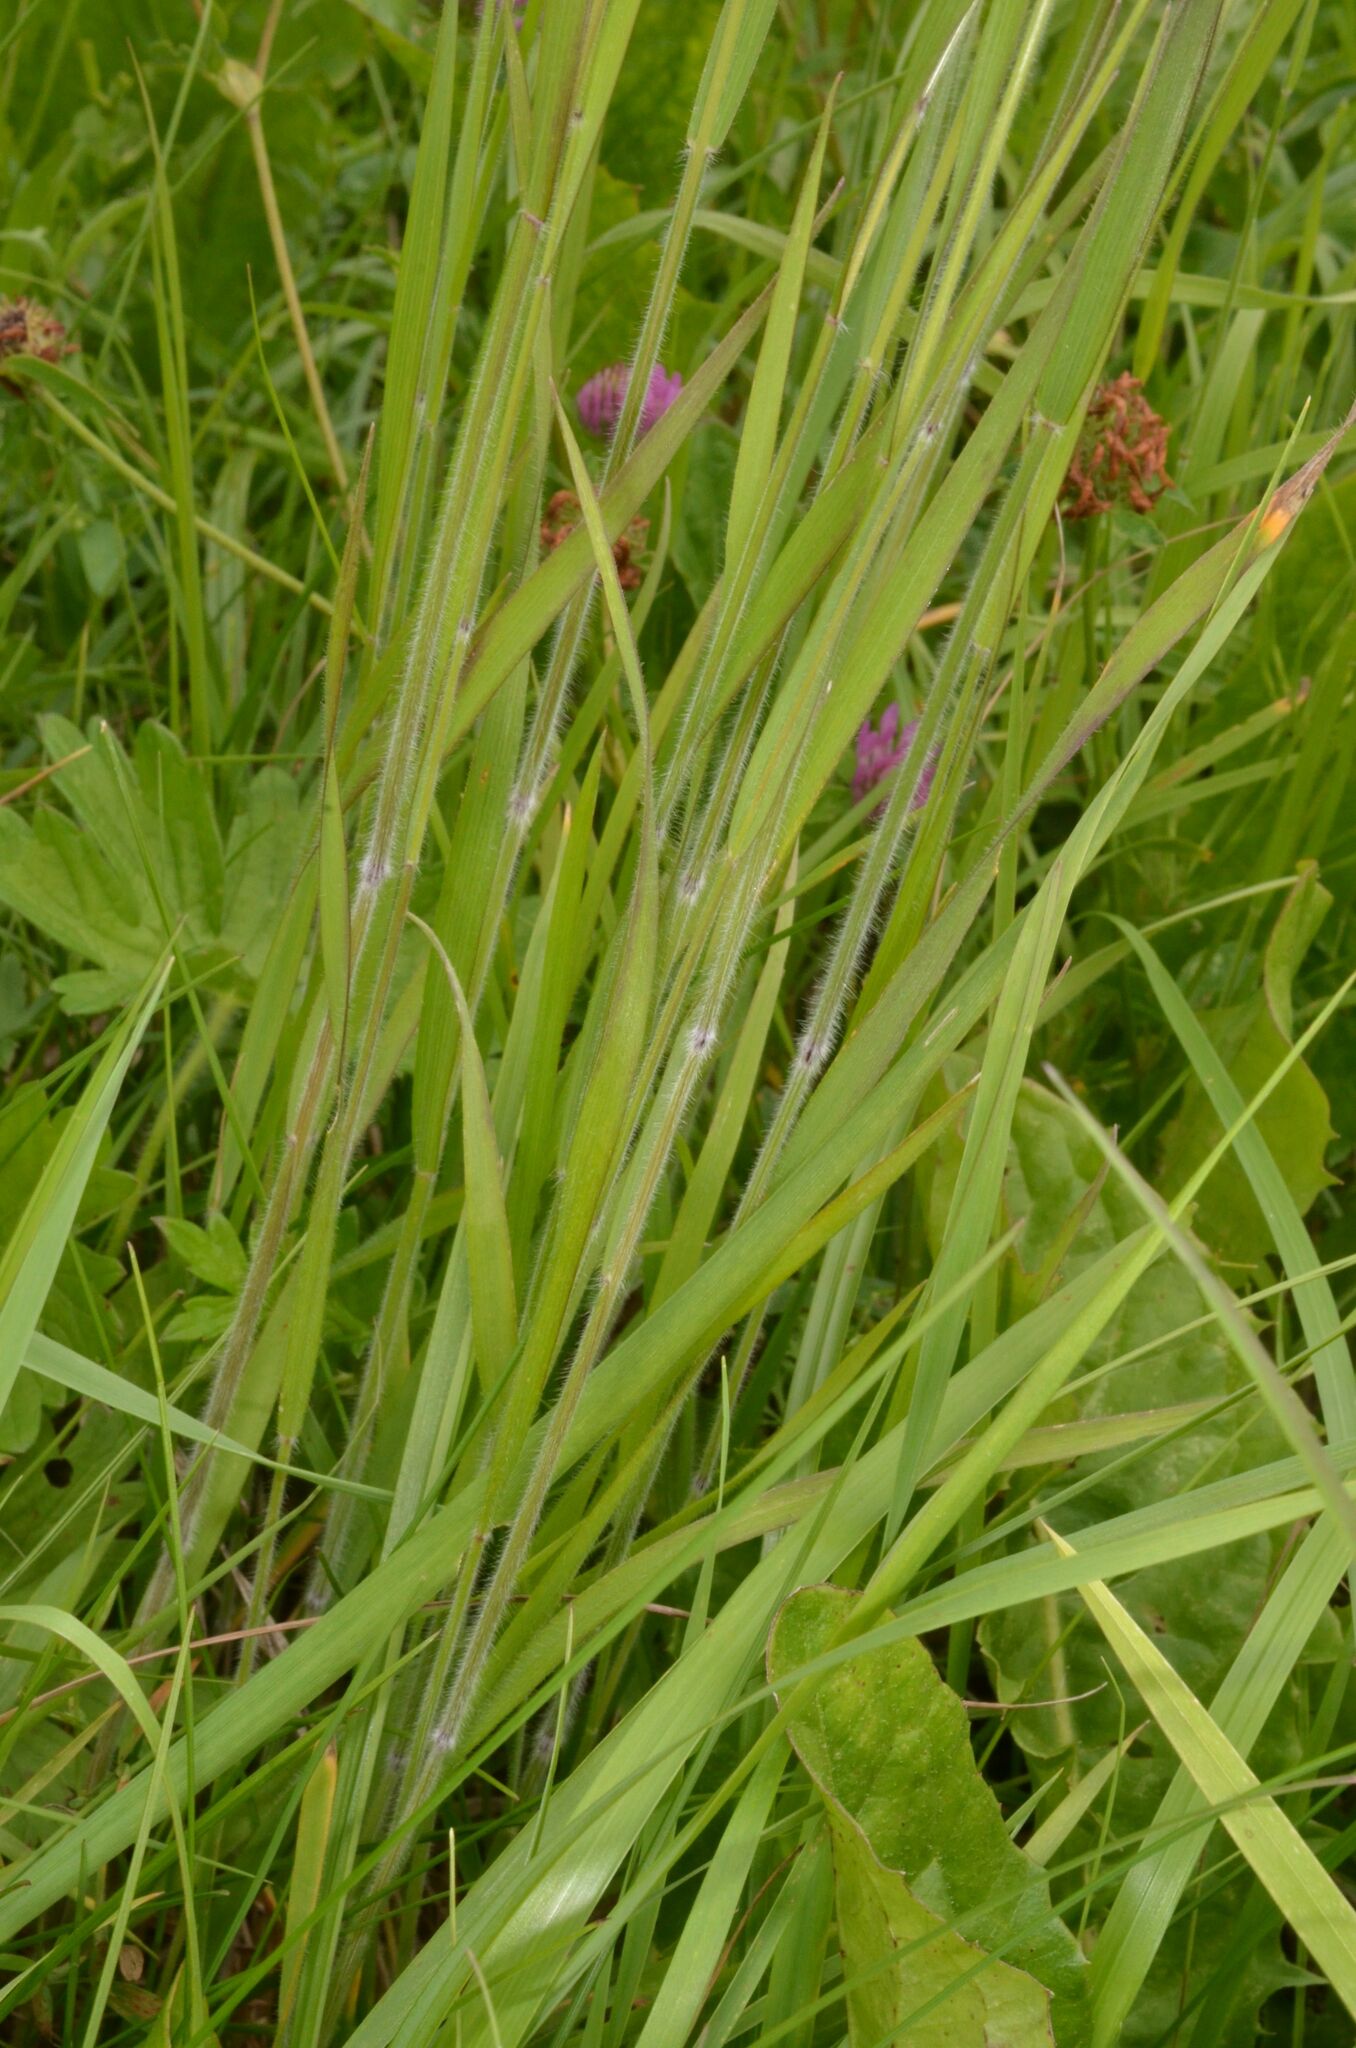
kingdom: Plantae
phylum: Tracheophyta
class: Liliopsida
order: Poales
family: Poaceae
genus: Trisetum
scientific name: Trisetum flavescens
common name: Yellow oat-grass
